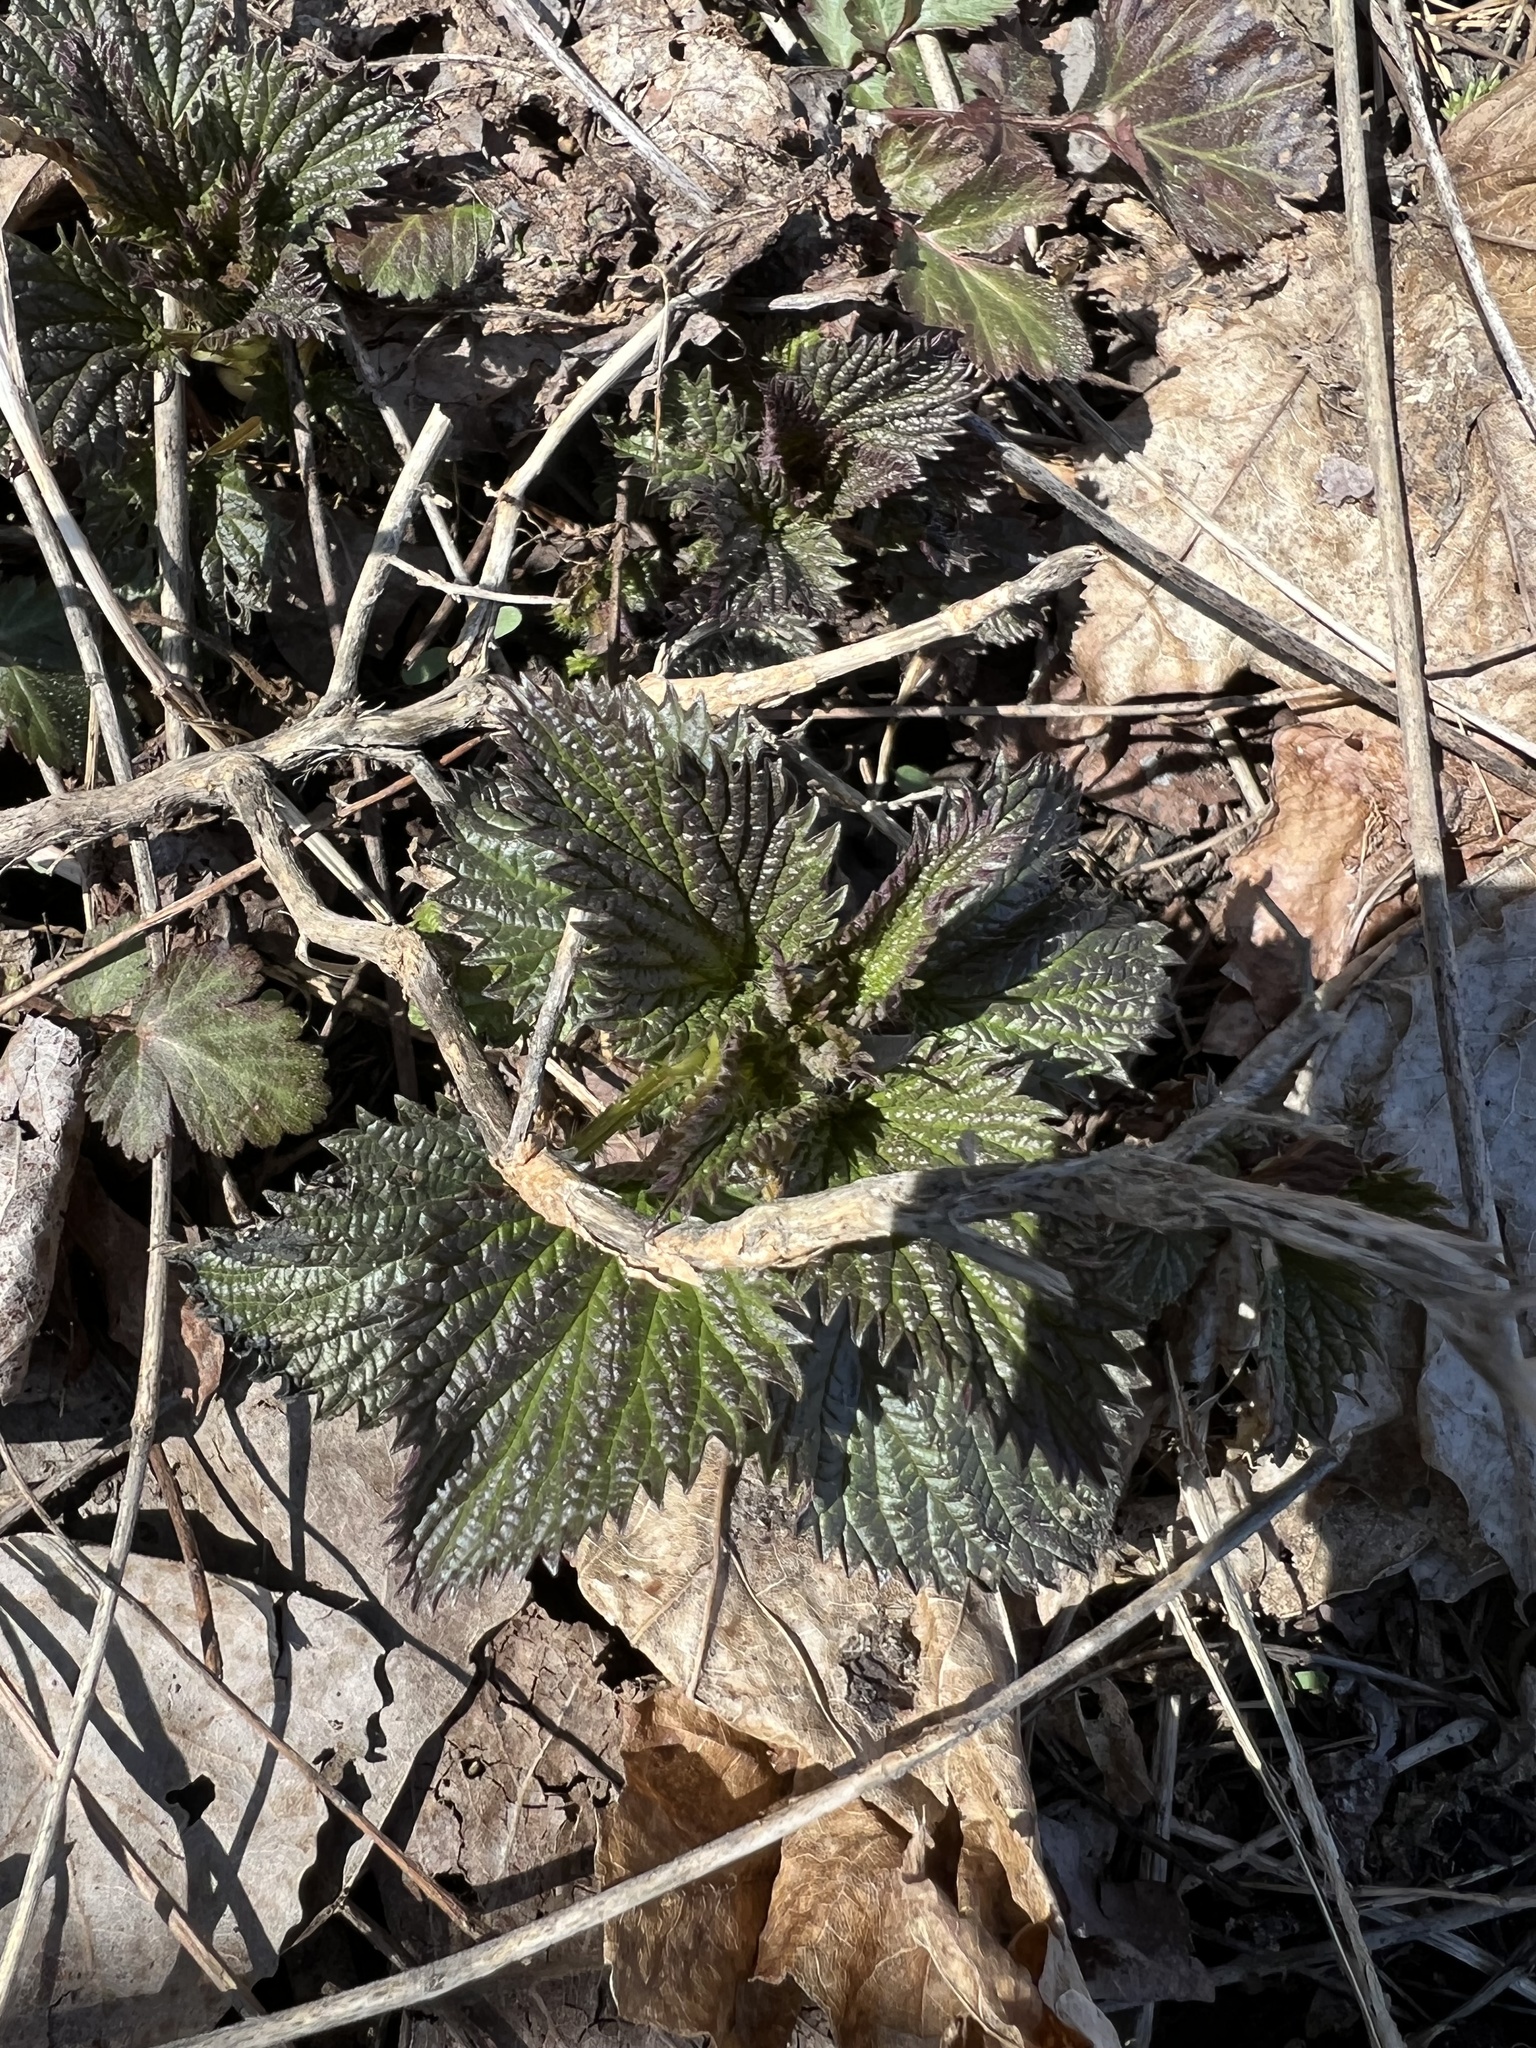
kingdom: Plantae
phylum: Tracheophyta
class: Magnoliopsida
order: Rosales
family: Urticaceae
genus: Urtica
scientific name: Urtica dioica
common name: Common nettle
